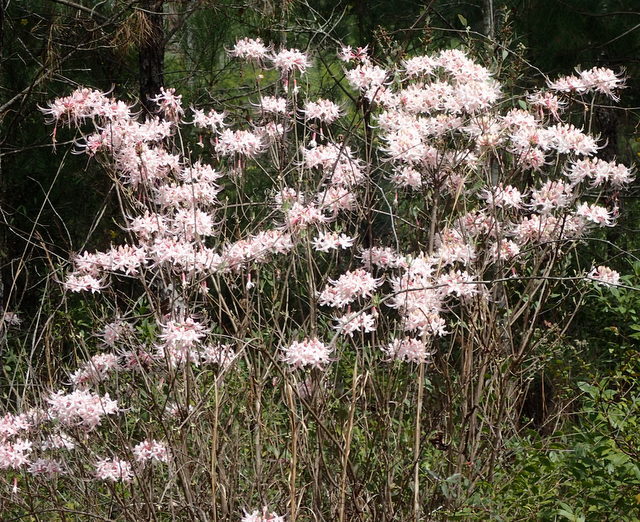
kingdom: Plantae
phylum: Tracheophyta
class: Magnoliopsida
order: Ericales
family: Ericaceae
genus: Rhododendron
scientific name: Rhododendron canescens
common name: Mountain azalea
